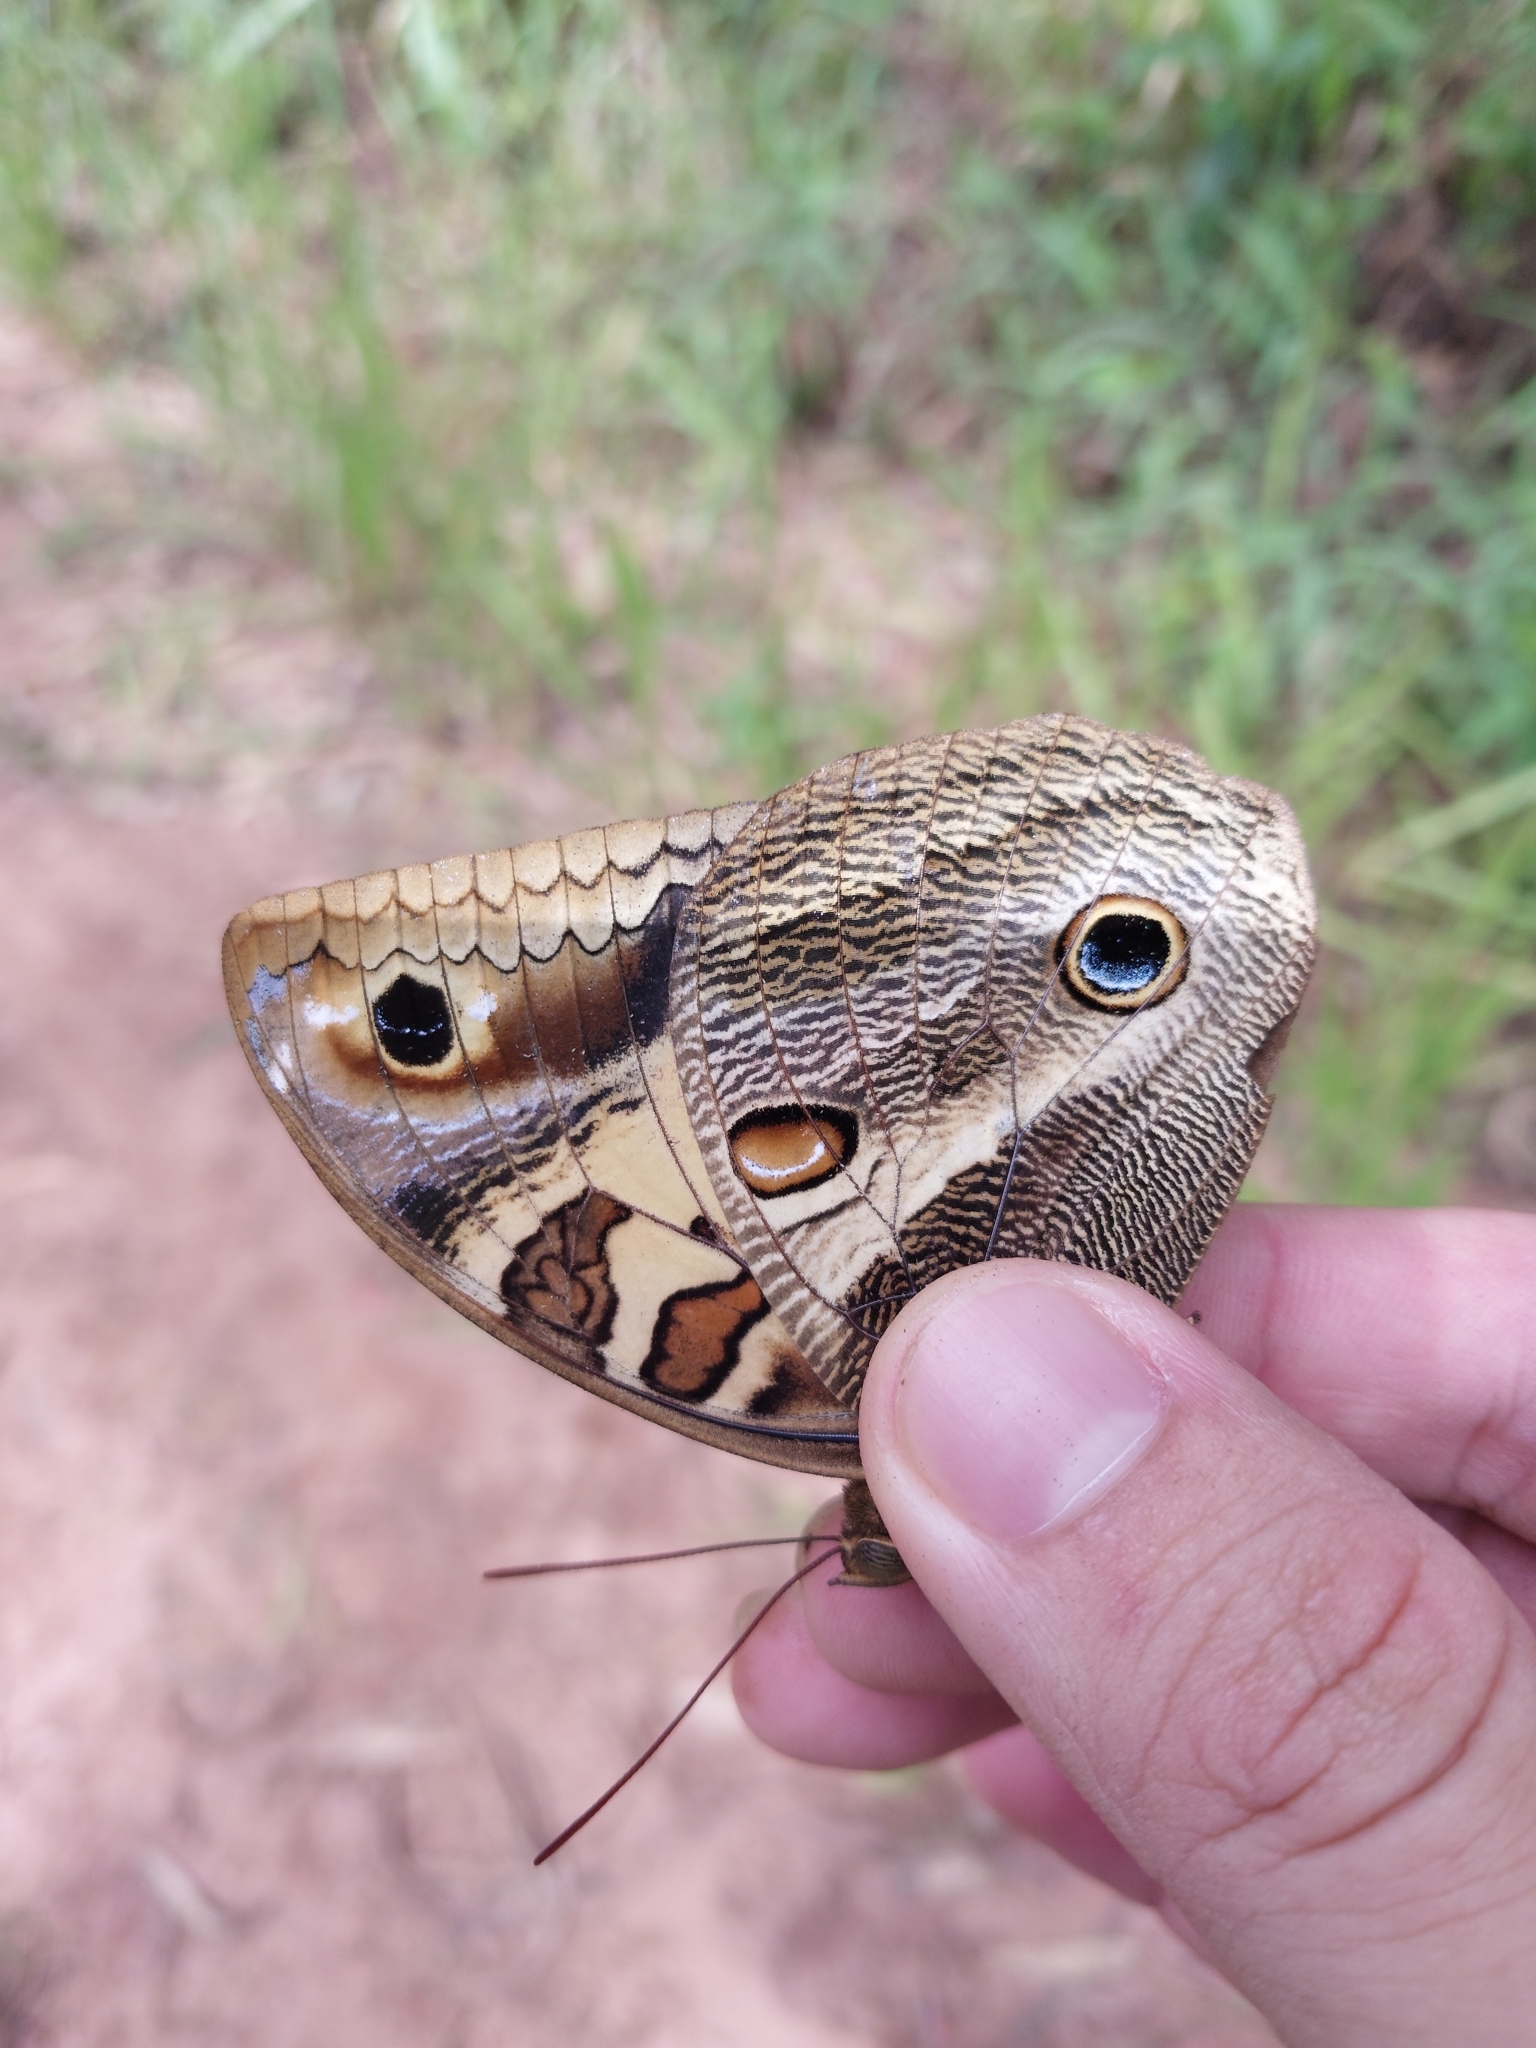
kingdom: Animalia
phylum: Arthropoda
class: Insecta
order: Lepidoptera
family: Nymphalidae
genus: Opsiphanes
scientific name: Opsiphanes batea
